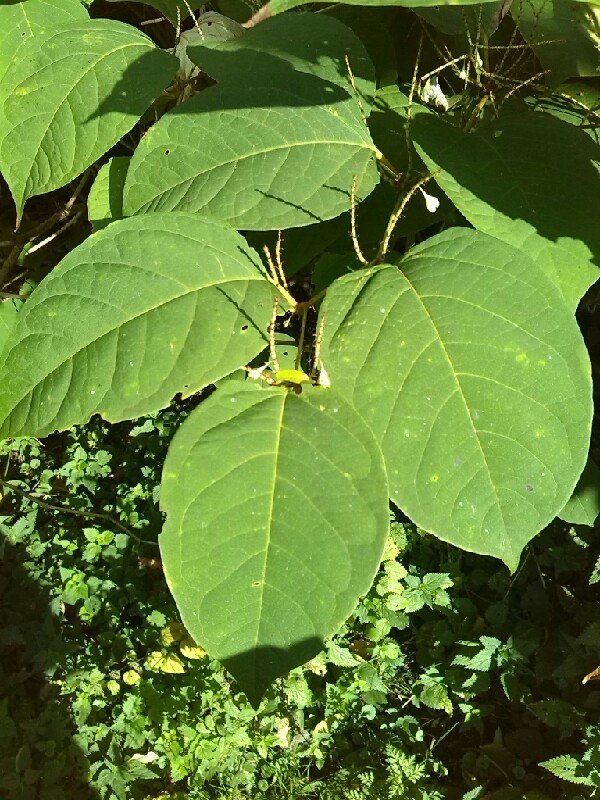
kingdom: Plantae
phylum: Tracheophyta
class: Magnoliopsida
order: Caryophyllales
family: Polygonaceae
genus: Reynoutria
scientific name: Reynoutria japonica
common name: Japanese knotweed
